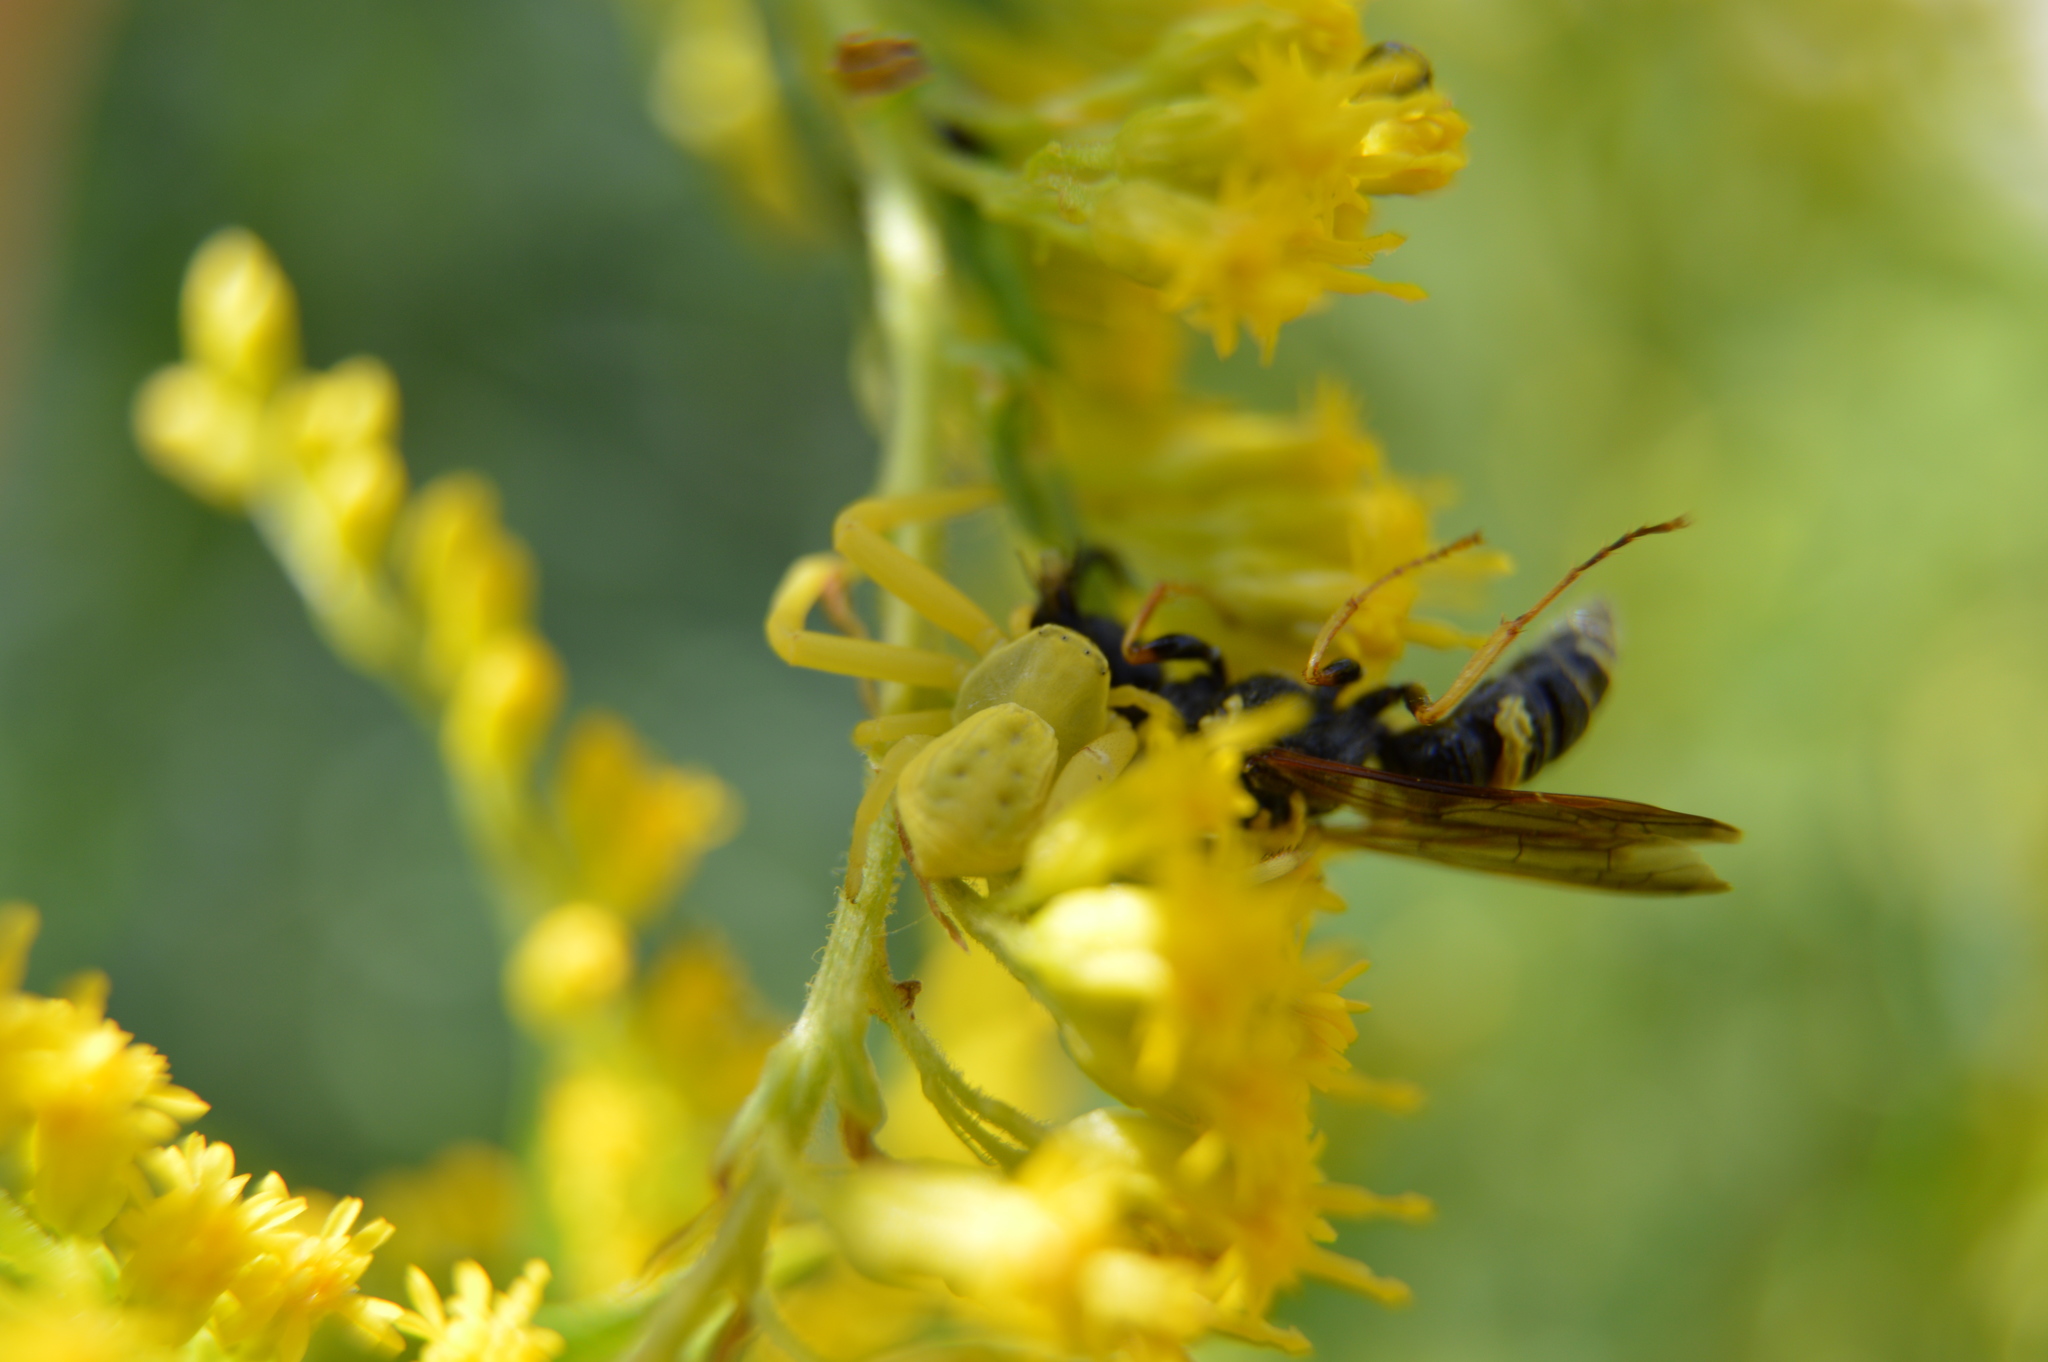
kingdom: Animalia
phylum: Arthropoda
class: Arachnida
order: Araneae
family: Thomisidae
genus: Misumenoides
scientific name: Misumenoides formosipes
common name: White-banded crab spider
